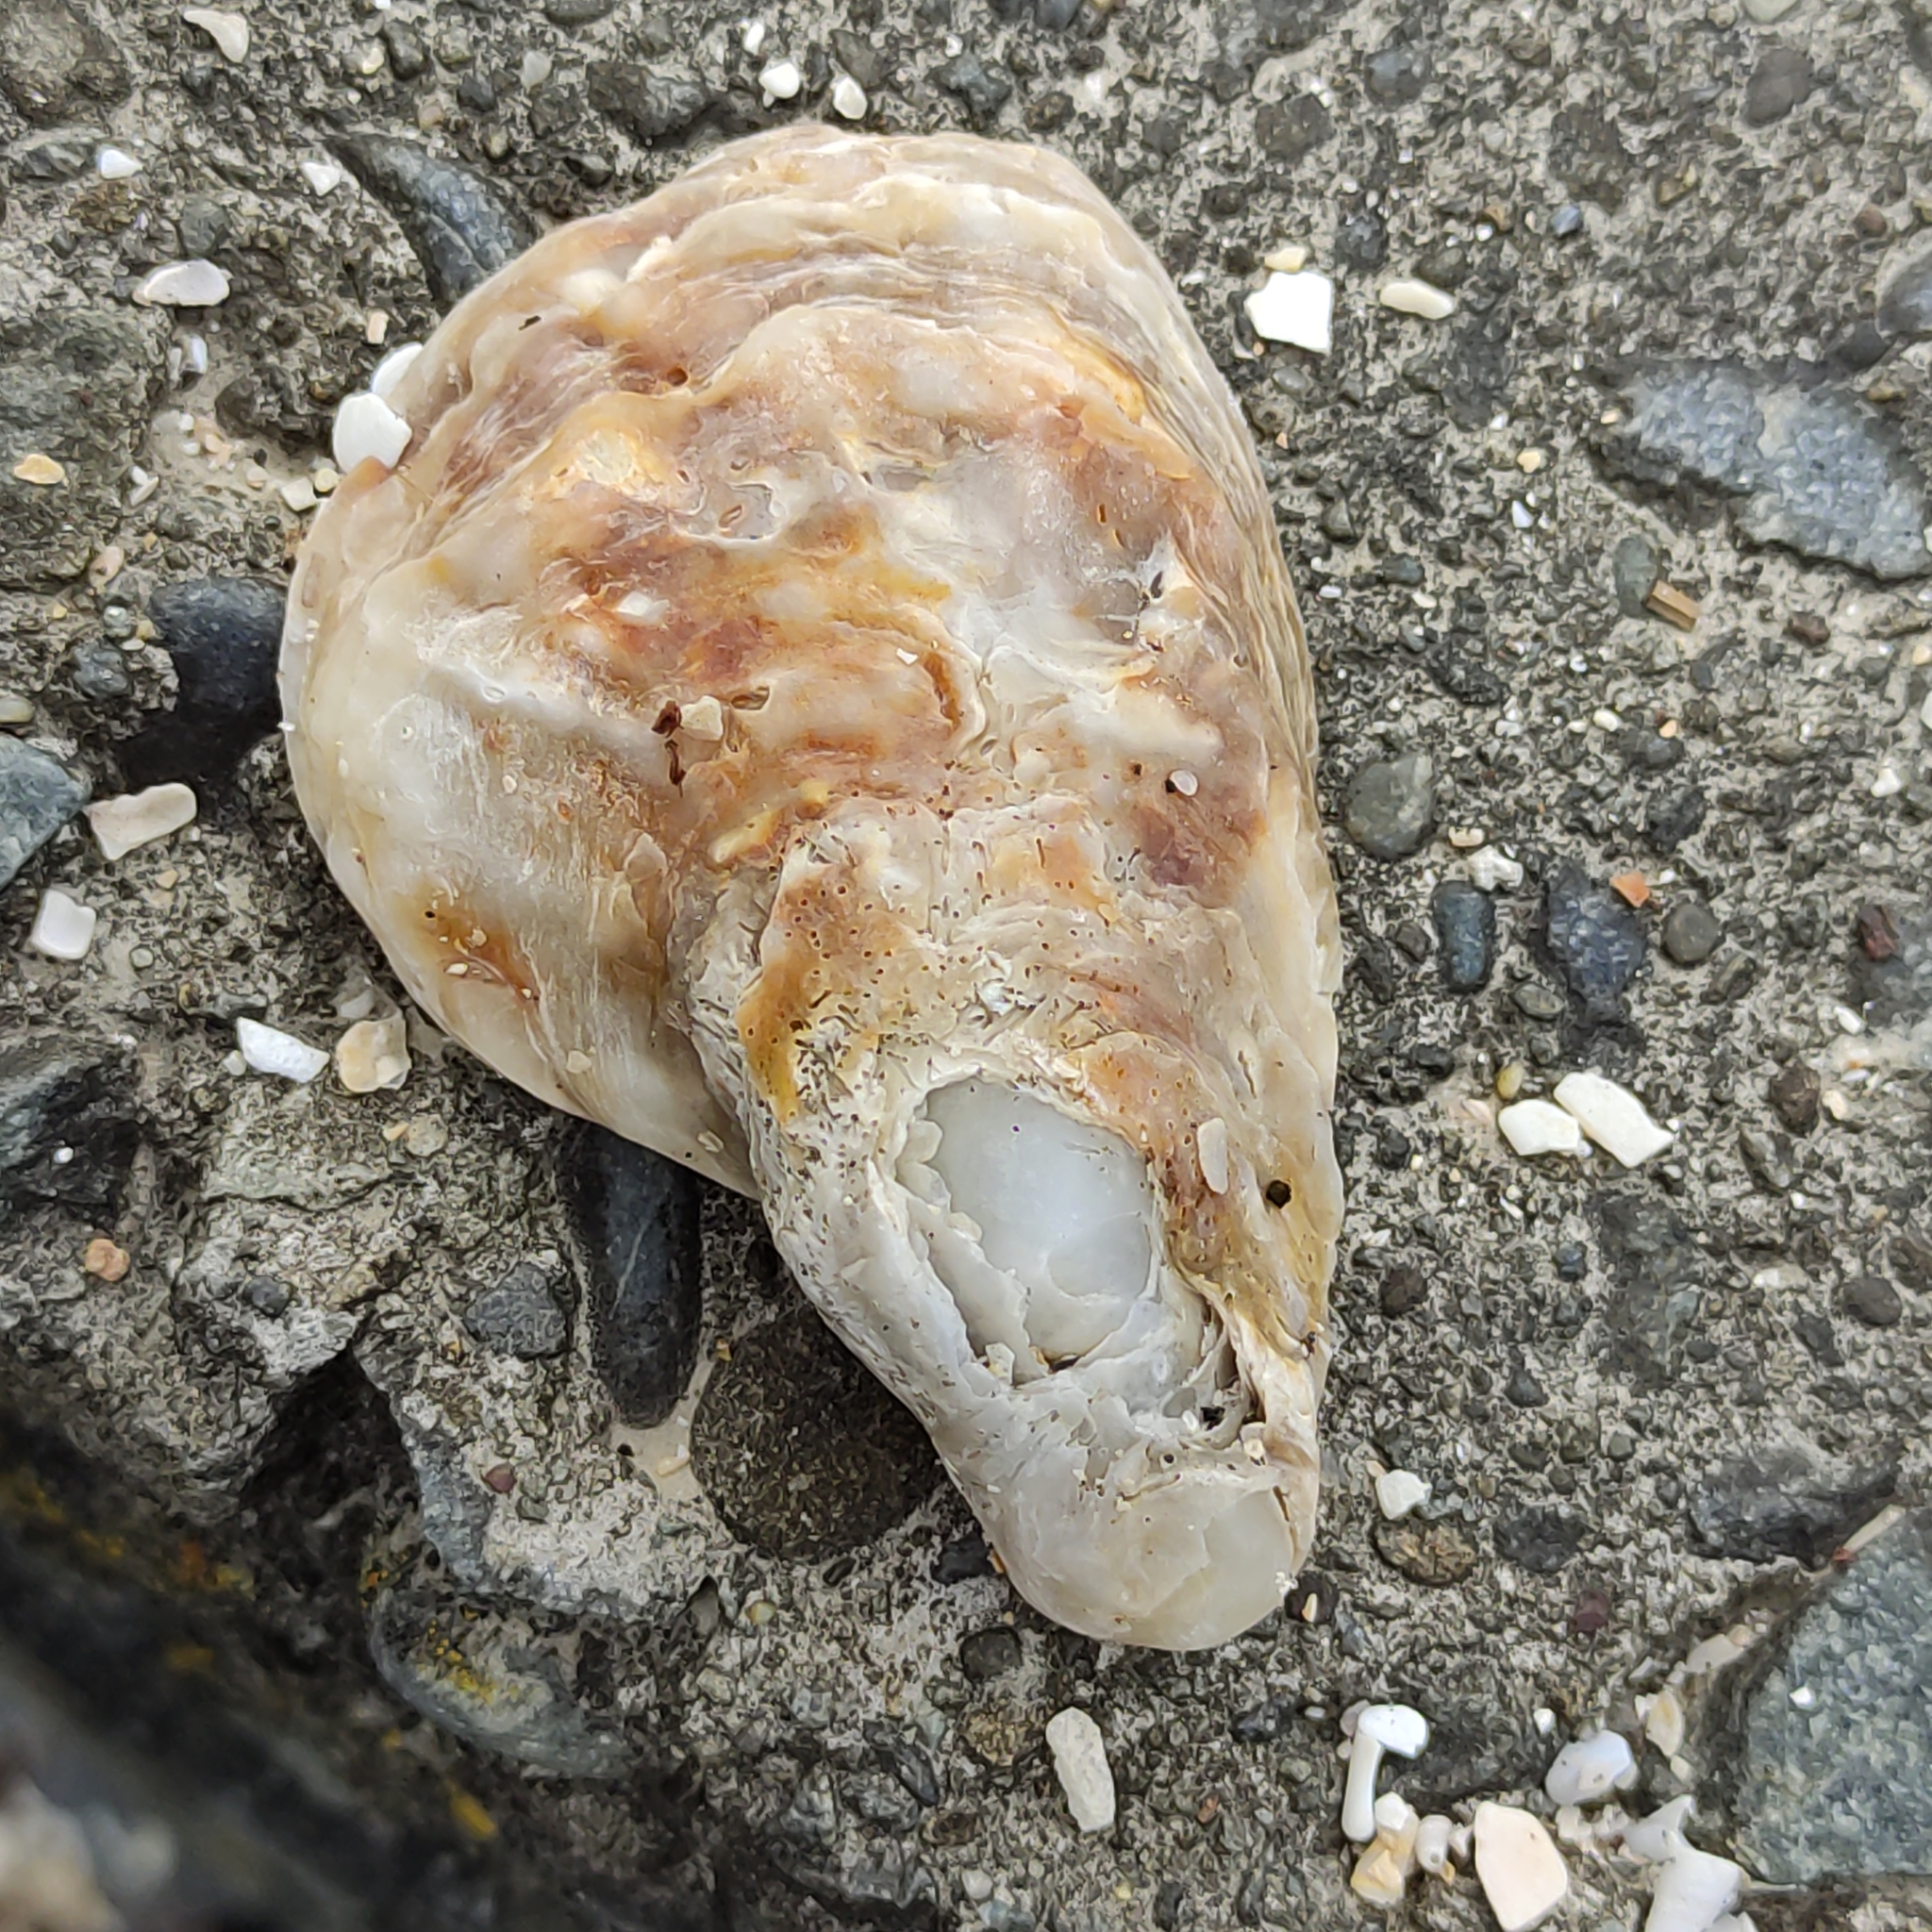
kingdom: Animalia
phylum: Mollusca
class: Bivalvia
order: Ostreida
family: Ostreidae
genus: Magallana
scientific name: Magallana gigas
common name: Pacific oyster
